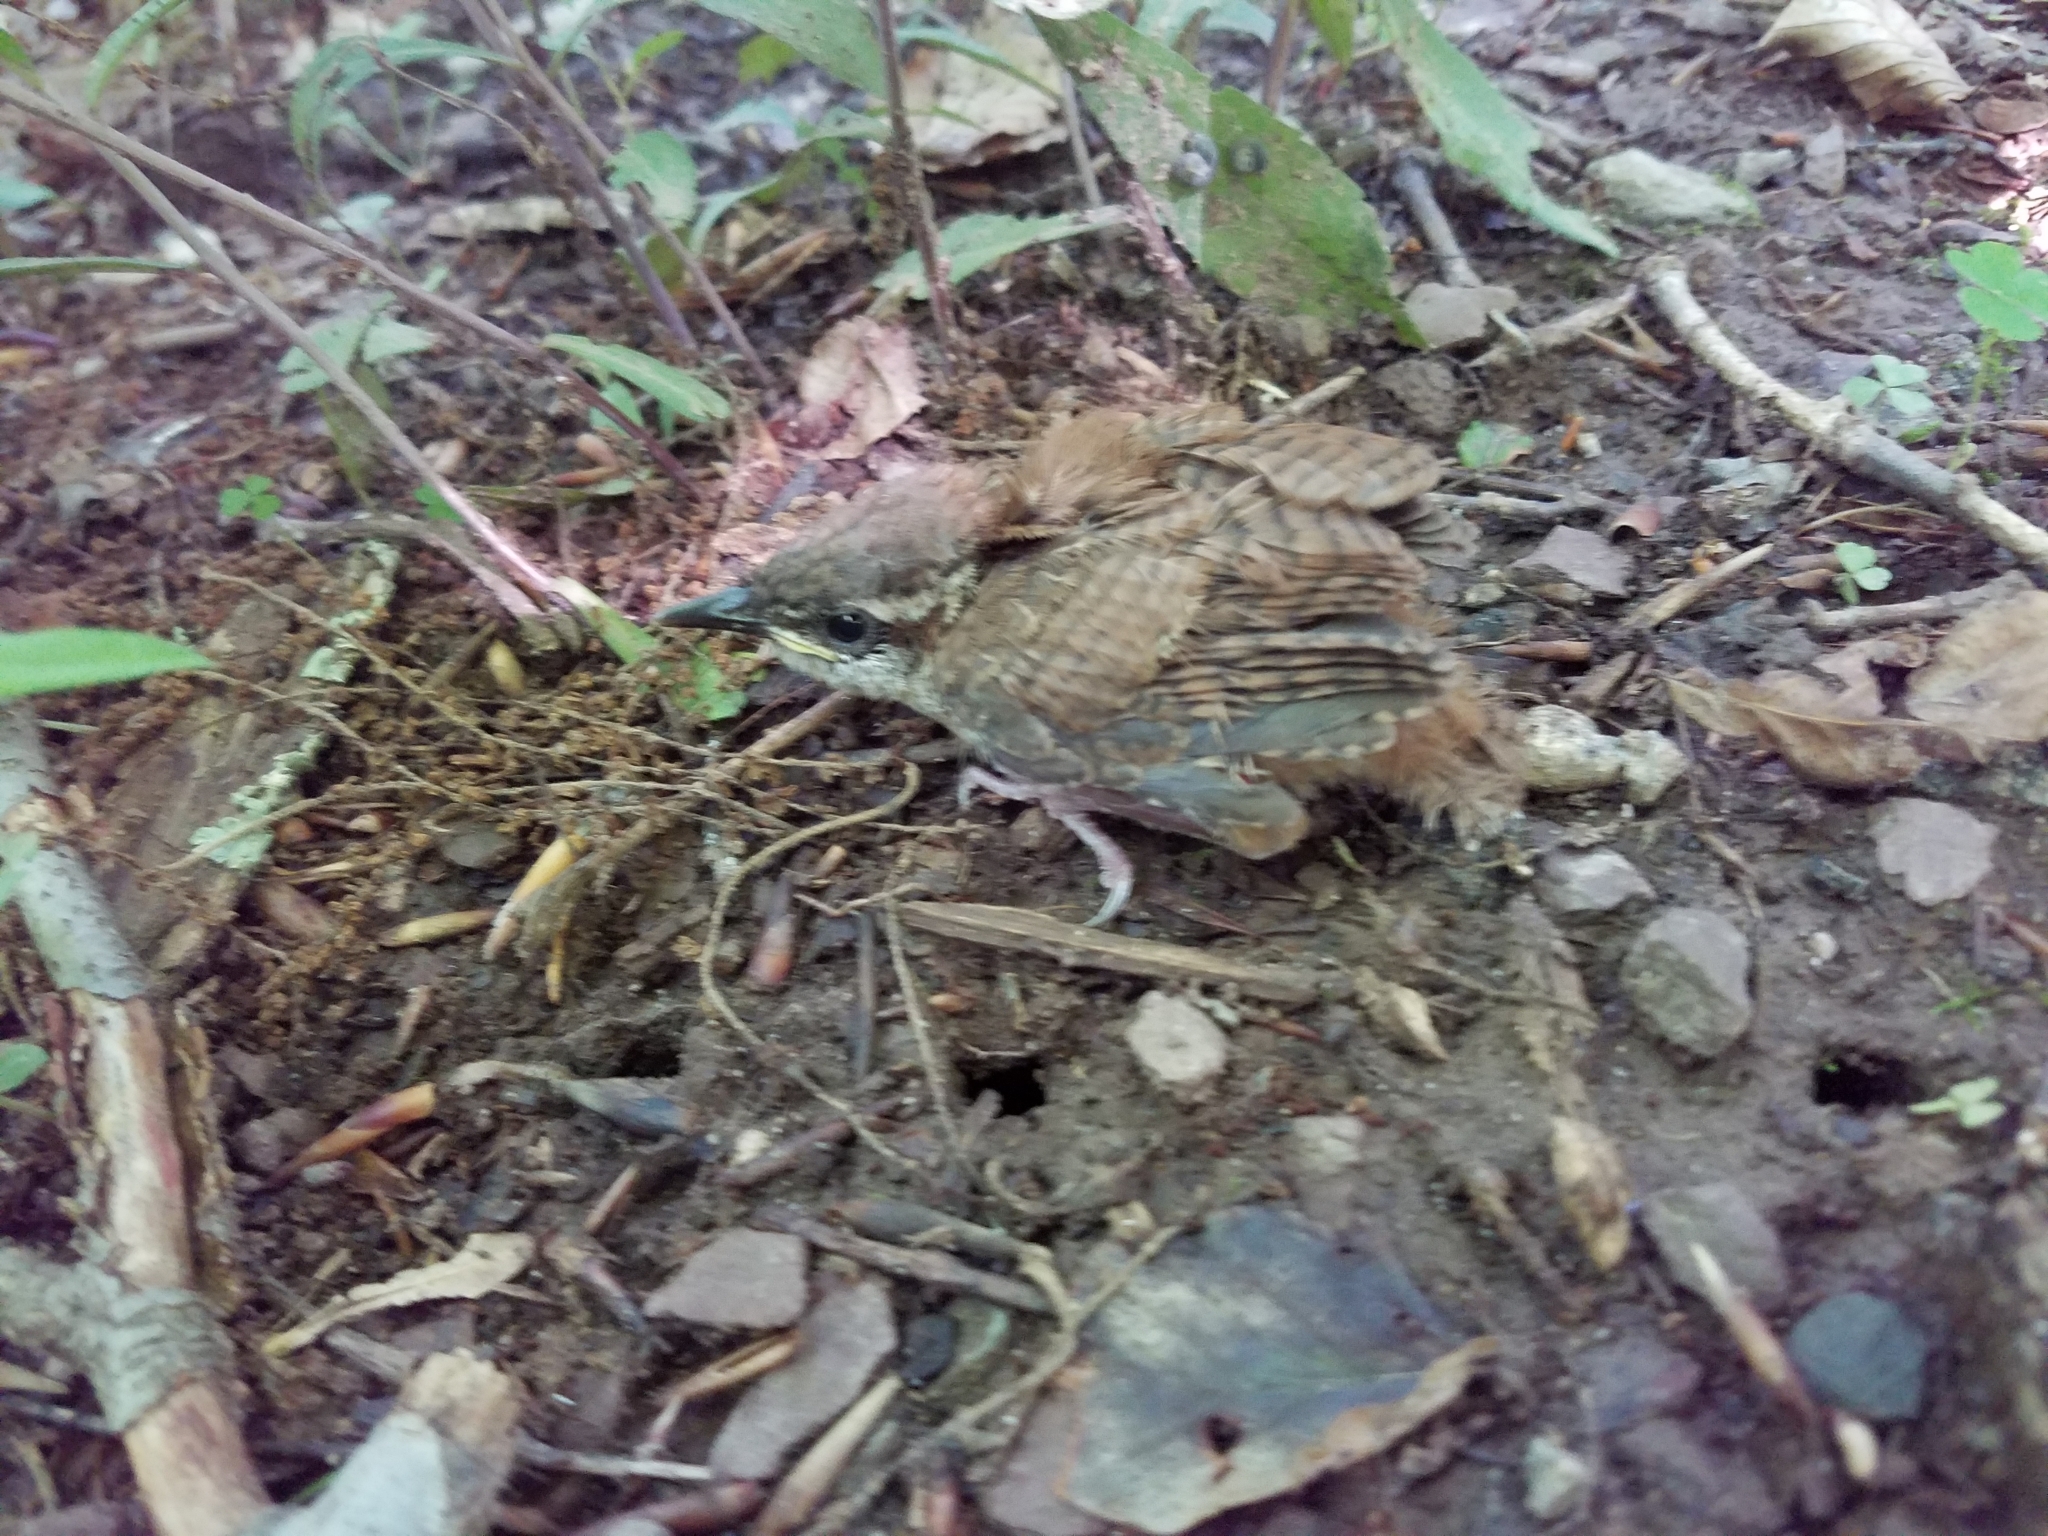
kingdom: Animalia
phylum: Chordata
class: Aves
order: Passeriformes
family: Troglodytidae
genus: Thryothorus
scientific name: Thryothorus ludovicianus
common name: Carolina wren
